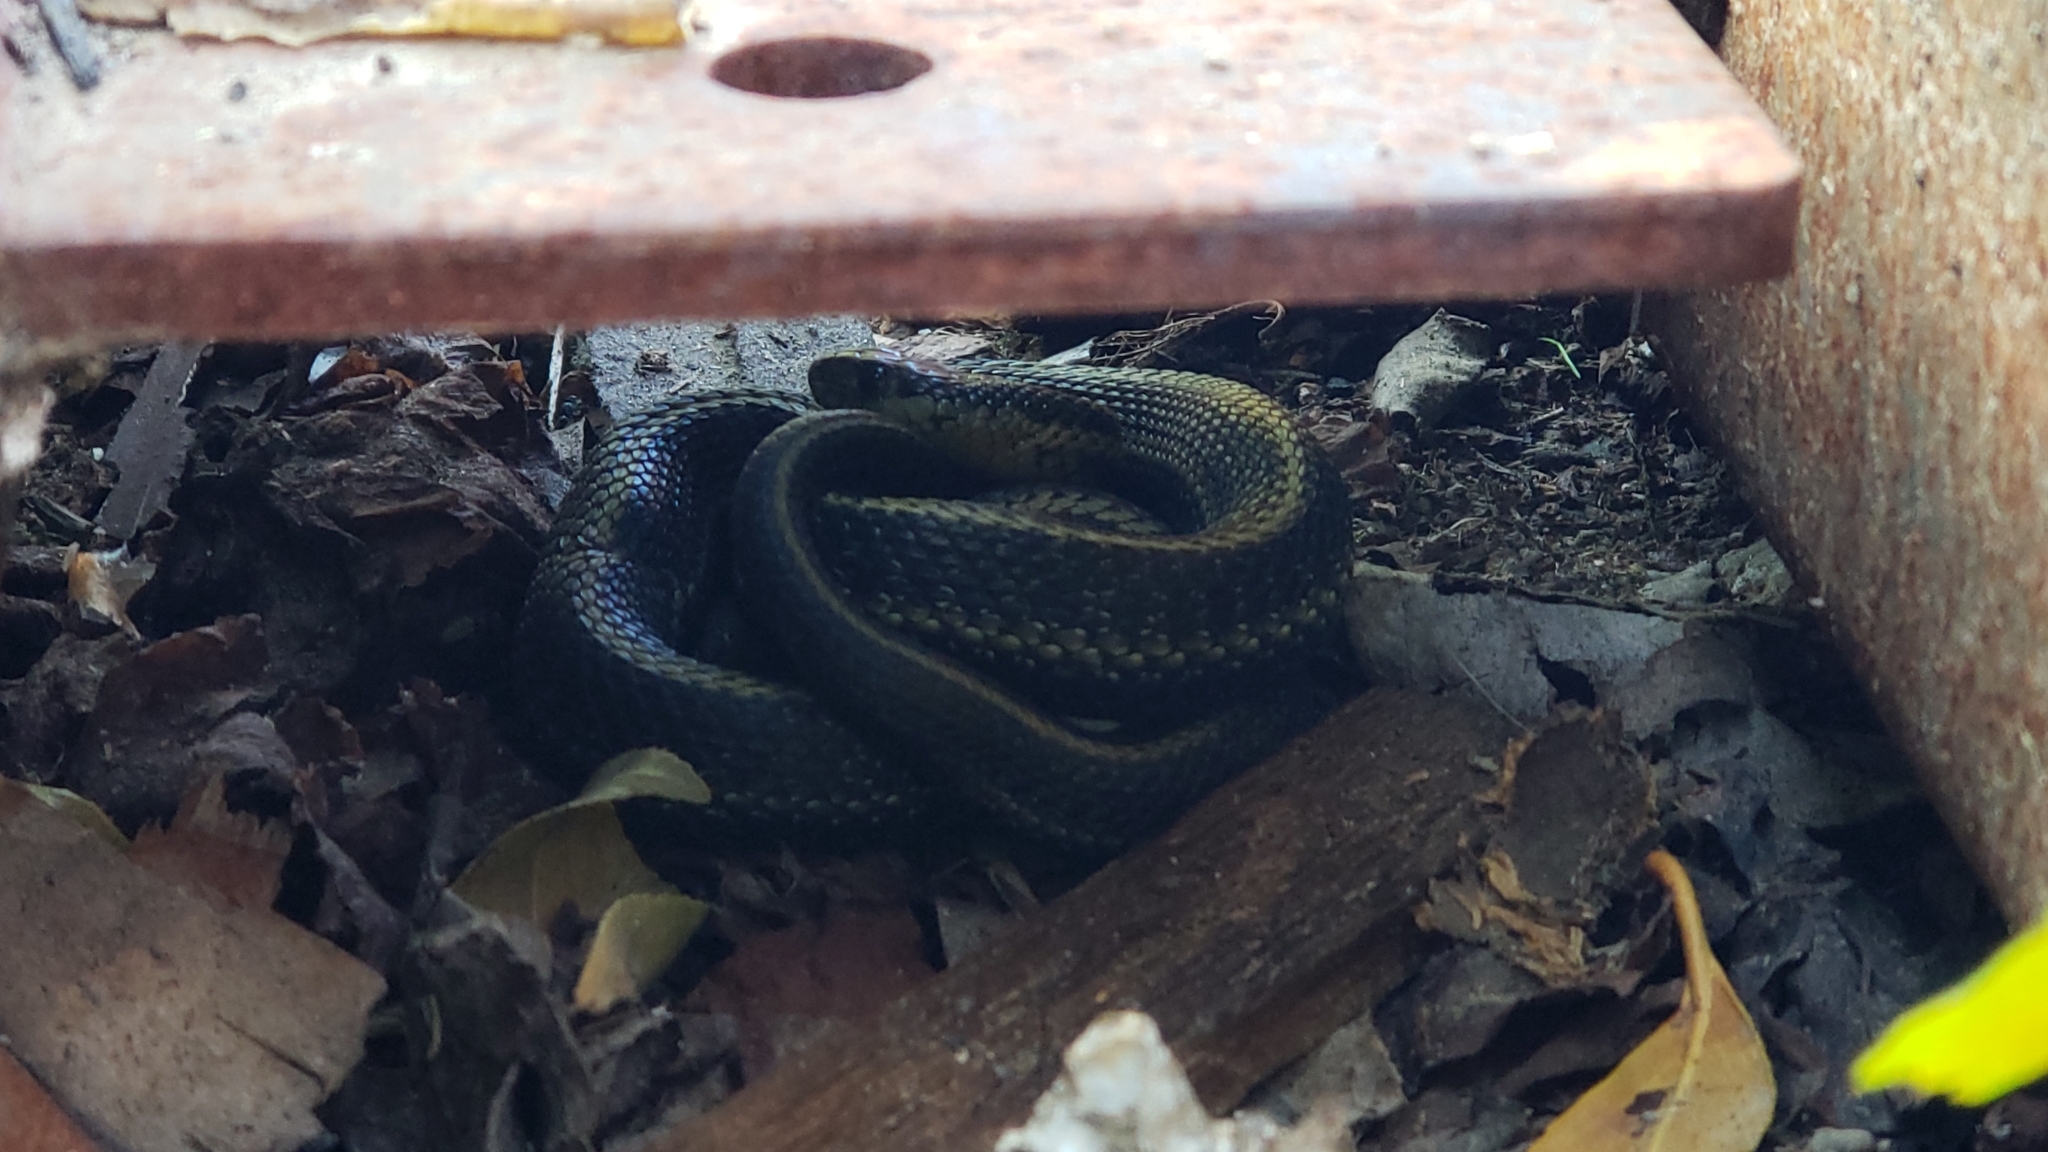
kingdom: Animalia
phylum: Chordata
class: Squamata
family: Colubridae
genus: Thamnophis
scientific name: Thamnophis ordinoides
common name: Northwestern garter snake
